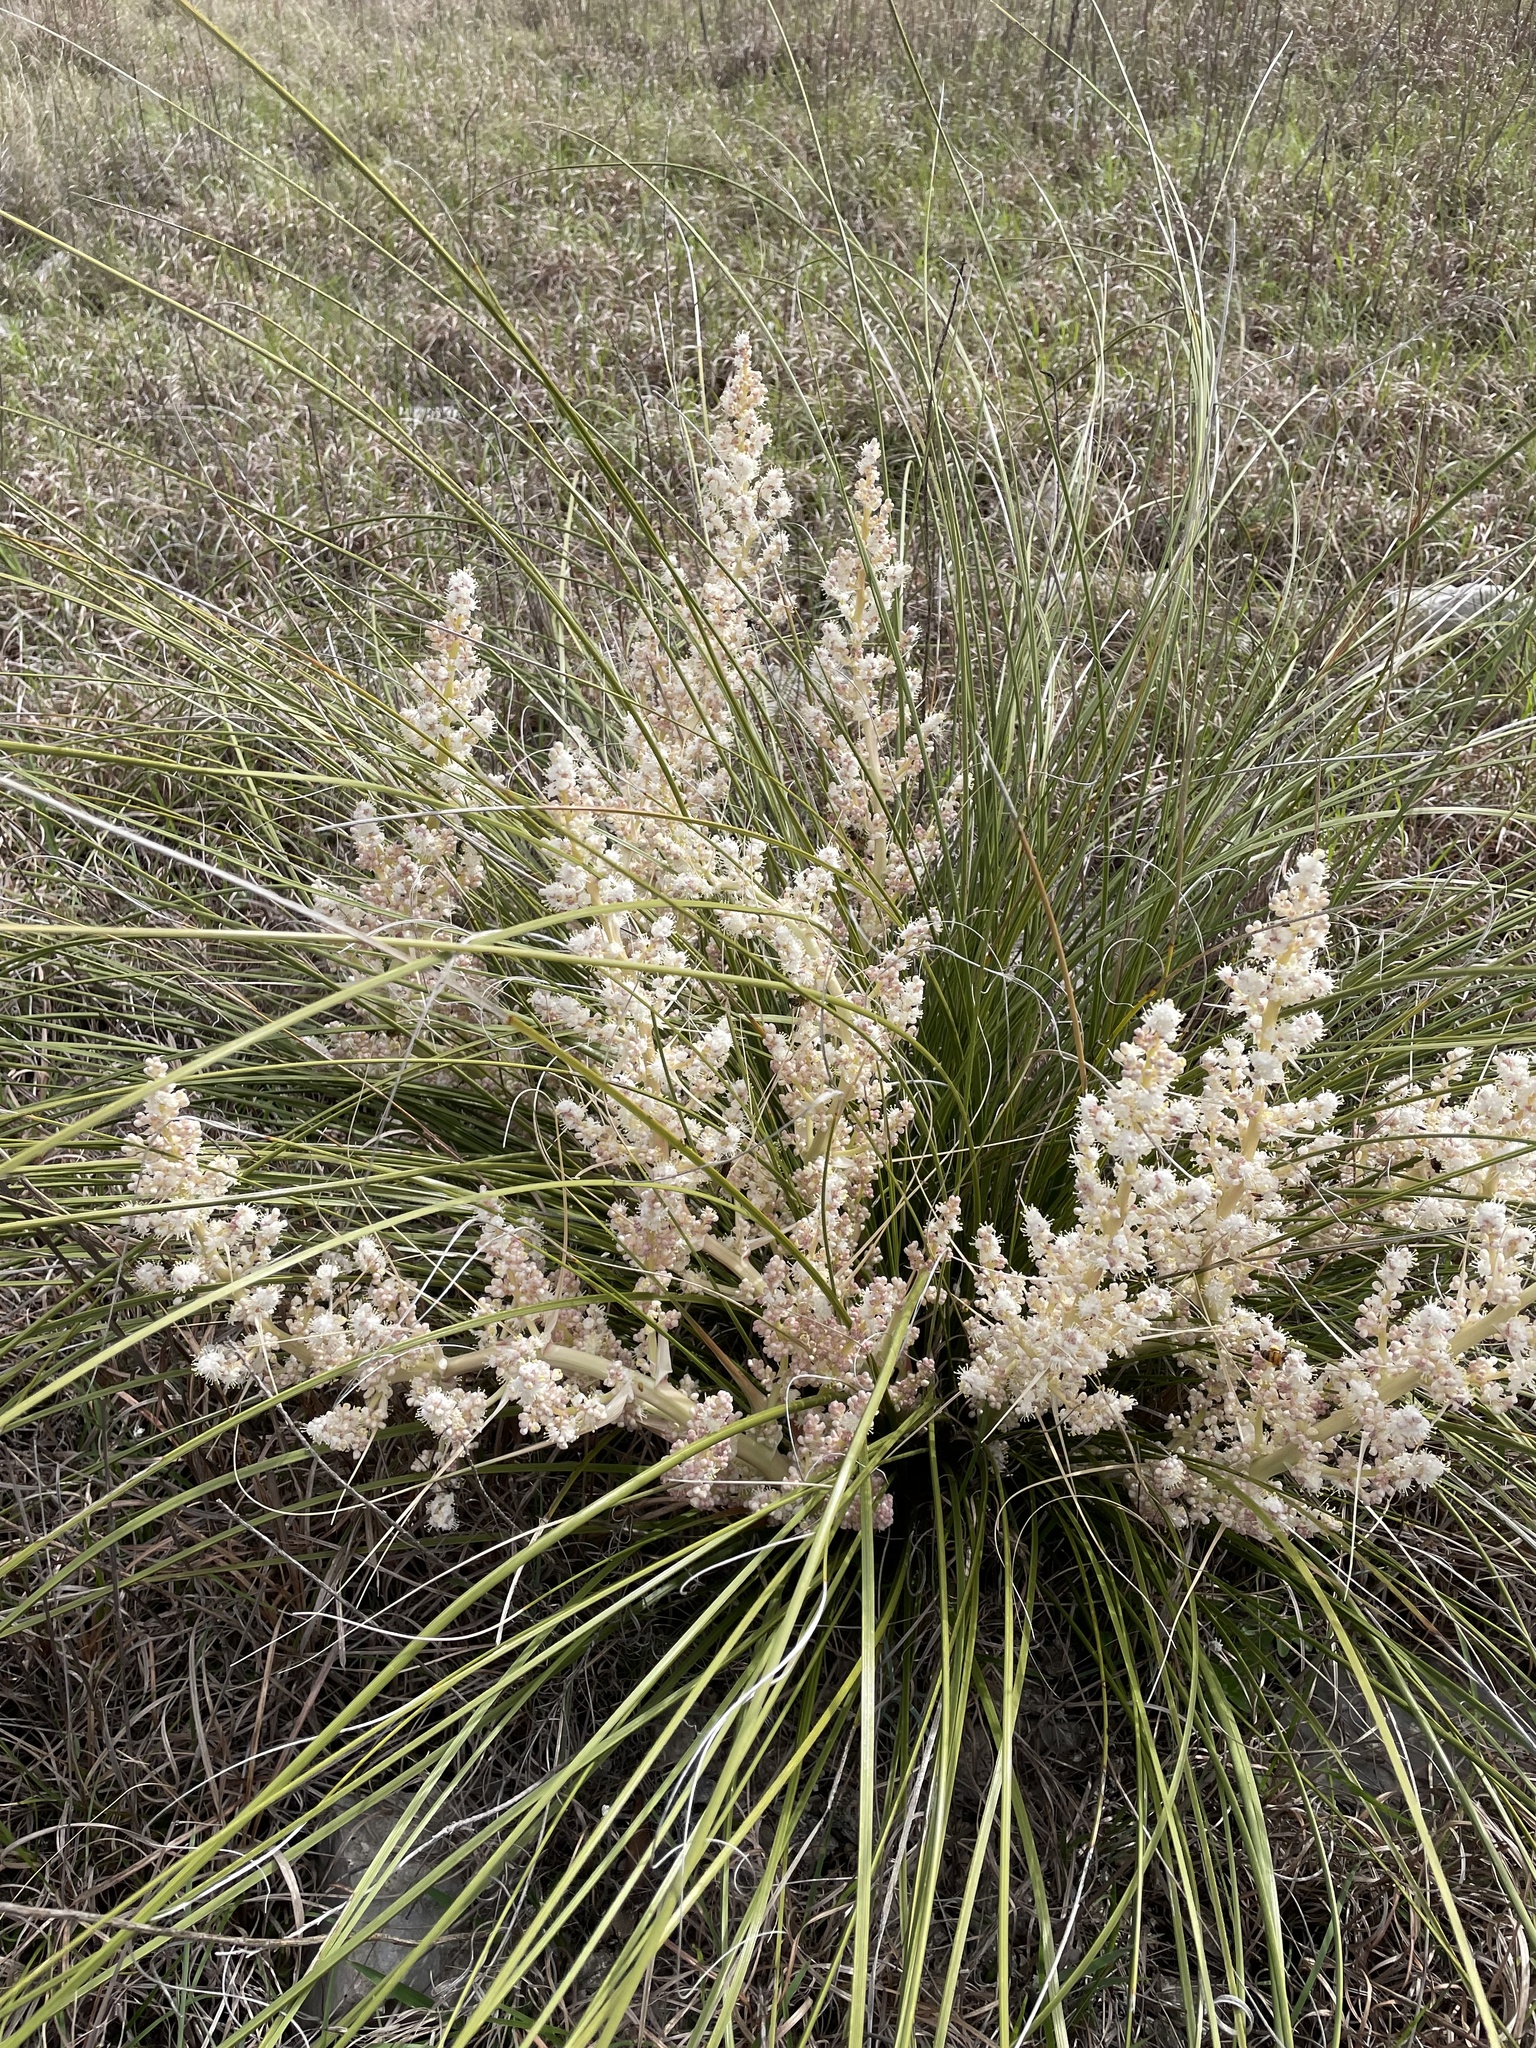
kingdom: Plantae
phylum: Tracheophyta
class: Liliopsida
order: Asparagales
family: Asparagaceae
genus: Nolina
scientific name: Nolina texana
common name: Texas sacahuiste
